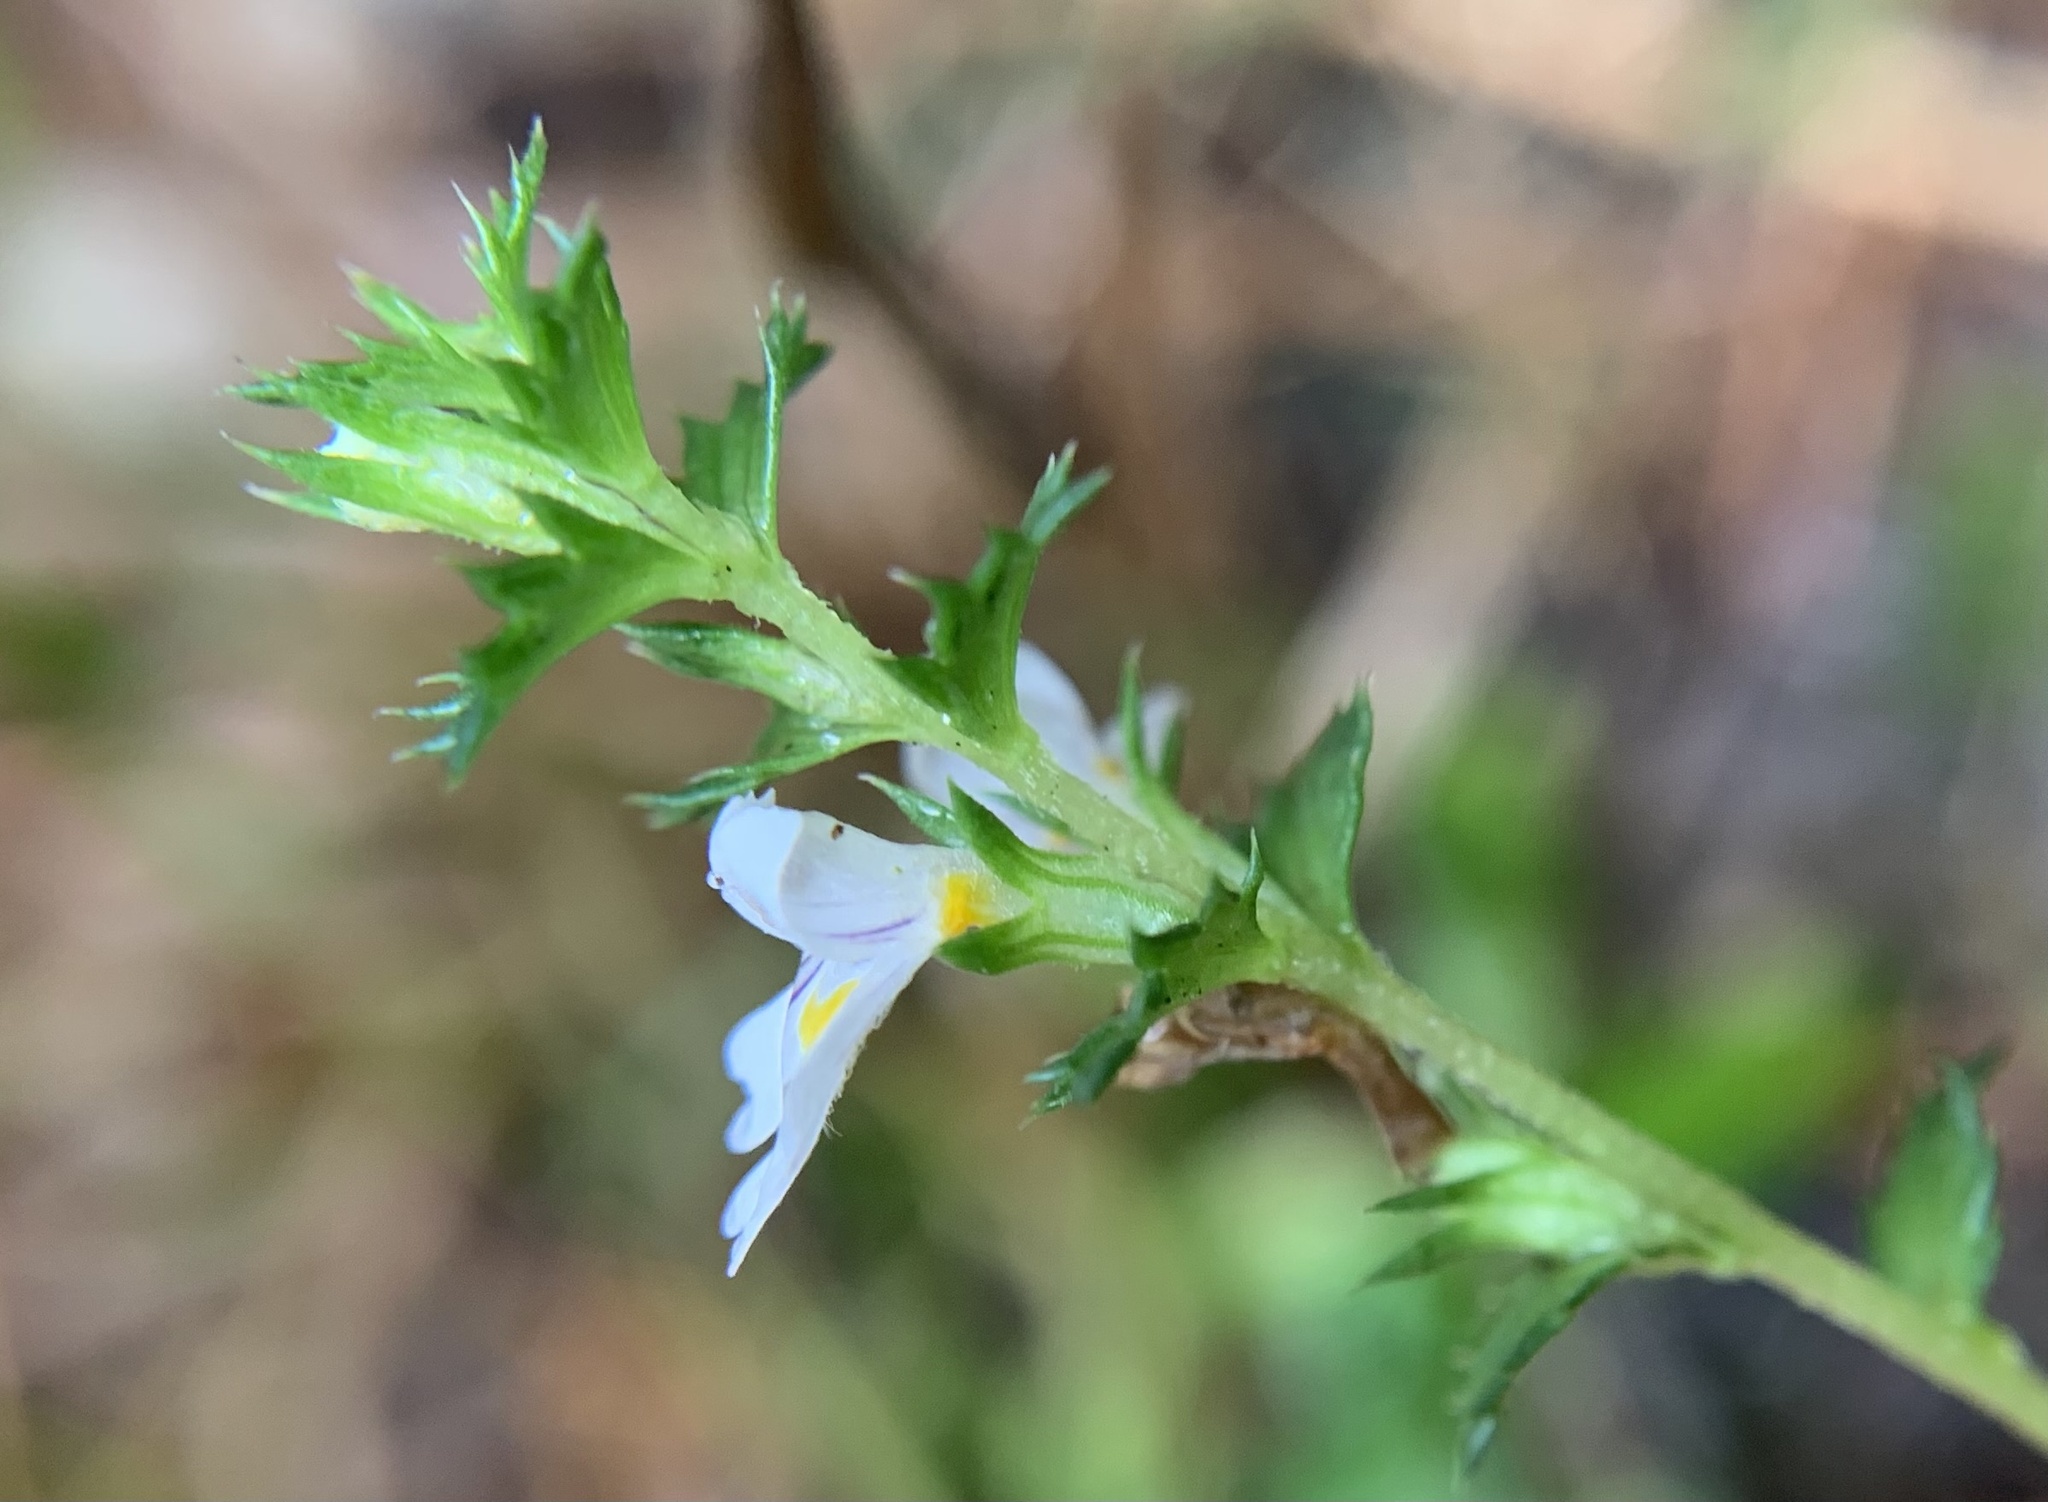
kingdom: Plantae
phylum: Tracheophyta
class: Magnoliopsida
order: Lamiales
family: Orobanchaceae
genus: Euphrasia
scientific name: Euphrasia nemorosa
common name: Common eyebright
